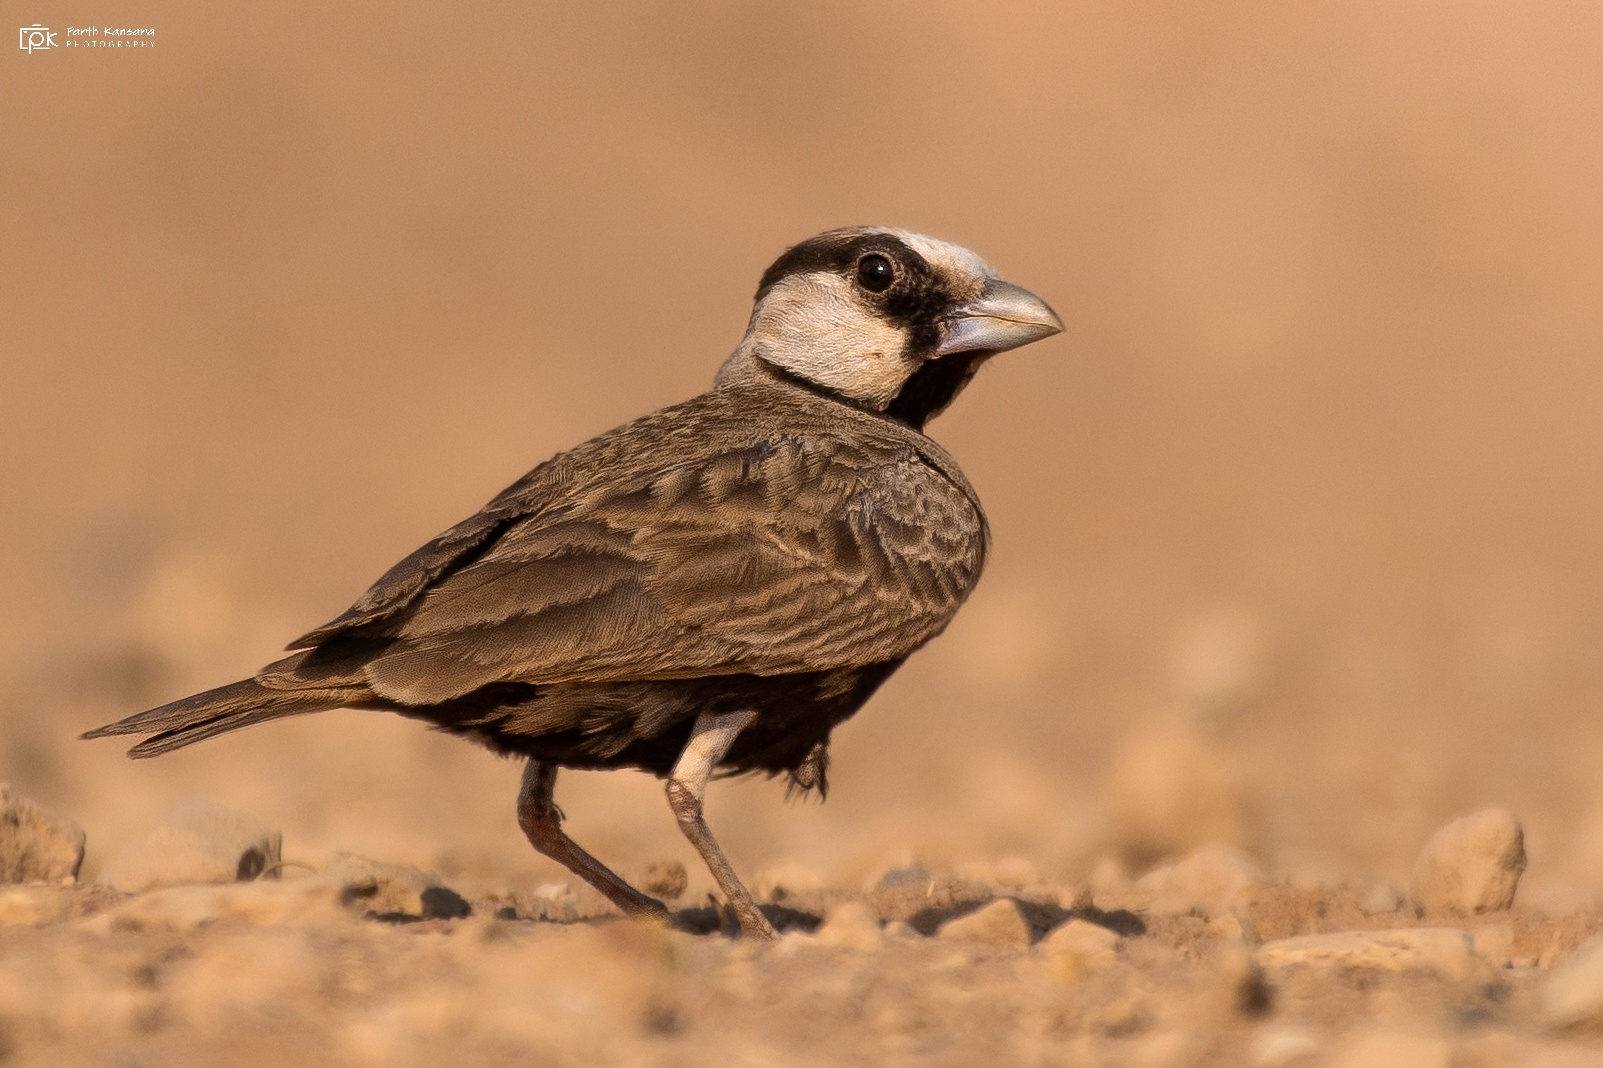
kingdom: Animalia
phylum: Chordata
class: Aves
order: Passeriformes
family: Alaudidae
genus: Eremopterix
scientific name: Eremopterix griseus
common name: Ashy-crowned sparrow-lark
